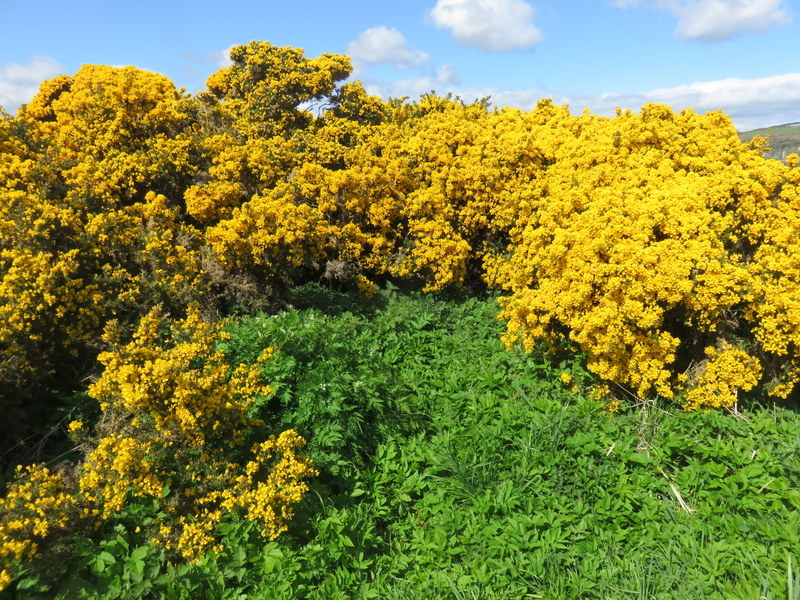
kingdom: Plantae
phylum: Tracheophyta
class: Magnoliopsida
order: Fabales
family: Fabaceae
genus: Ulex
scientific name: Ulex europaeus
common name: Common gorse
